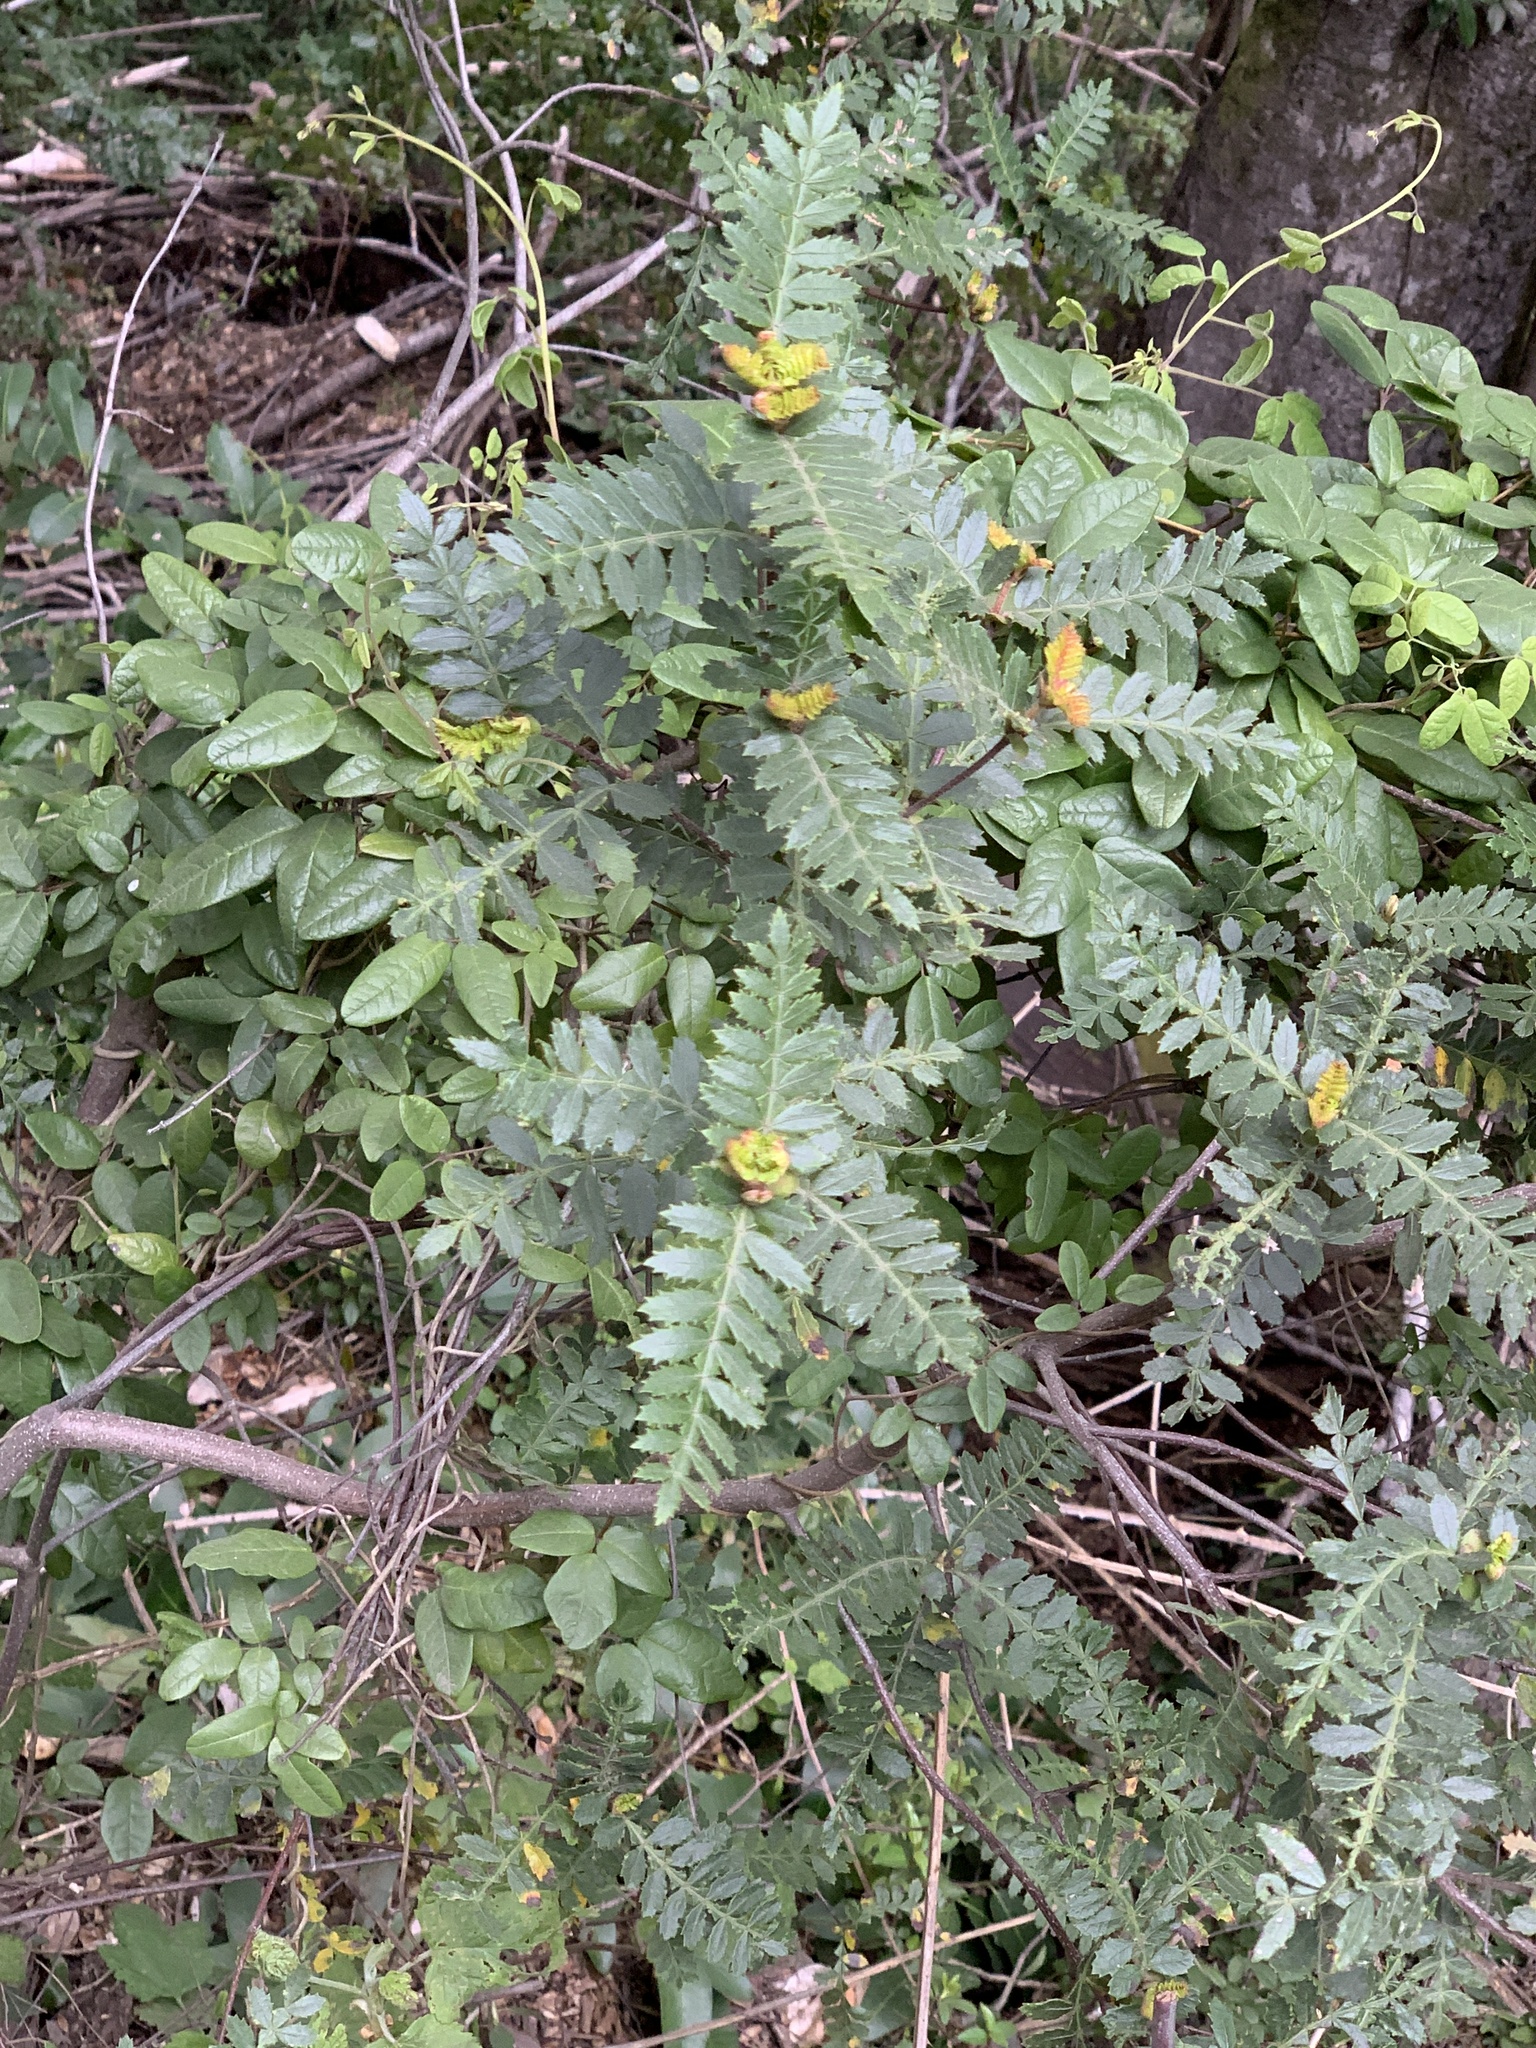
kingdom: Plantae
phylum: Tracheophyta
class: Magnoliopsida
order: Oxalidales
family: Cunoniaceae
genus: Weinmannia
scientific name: Weinmannia trichosperma
